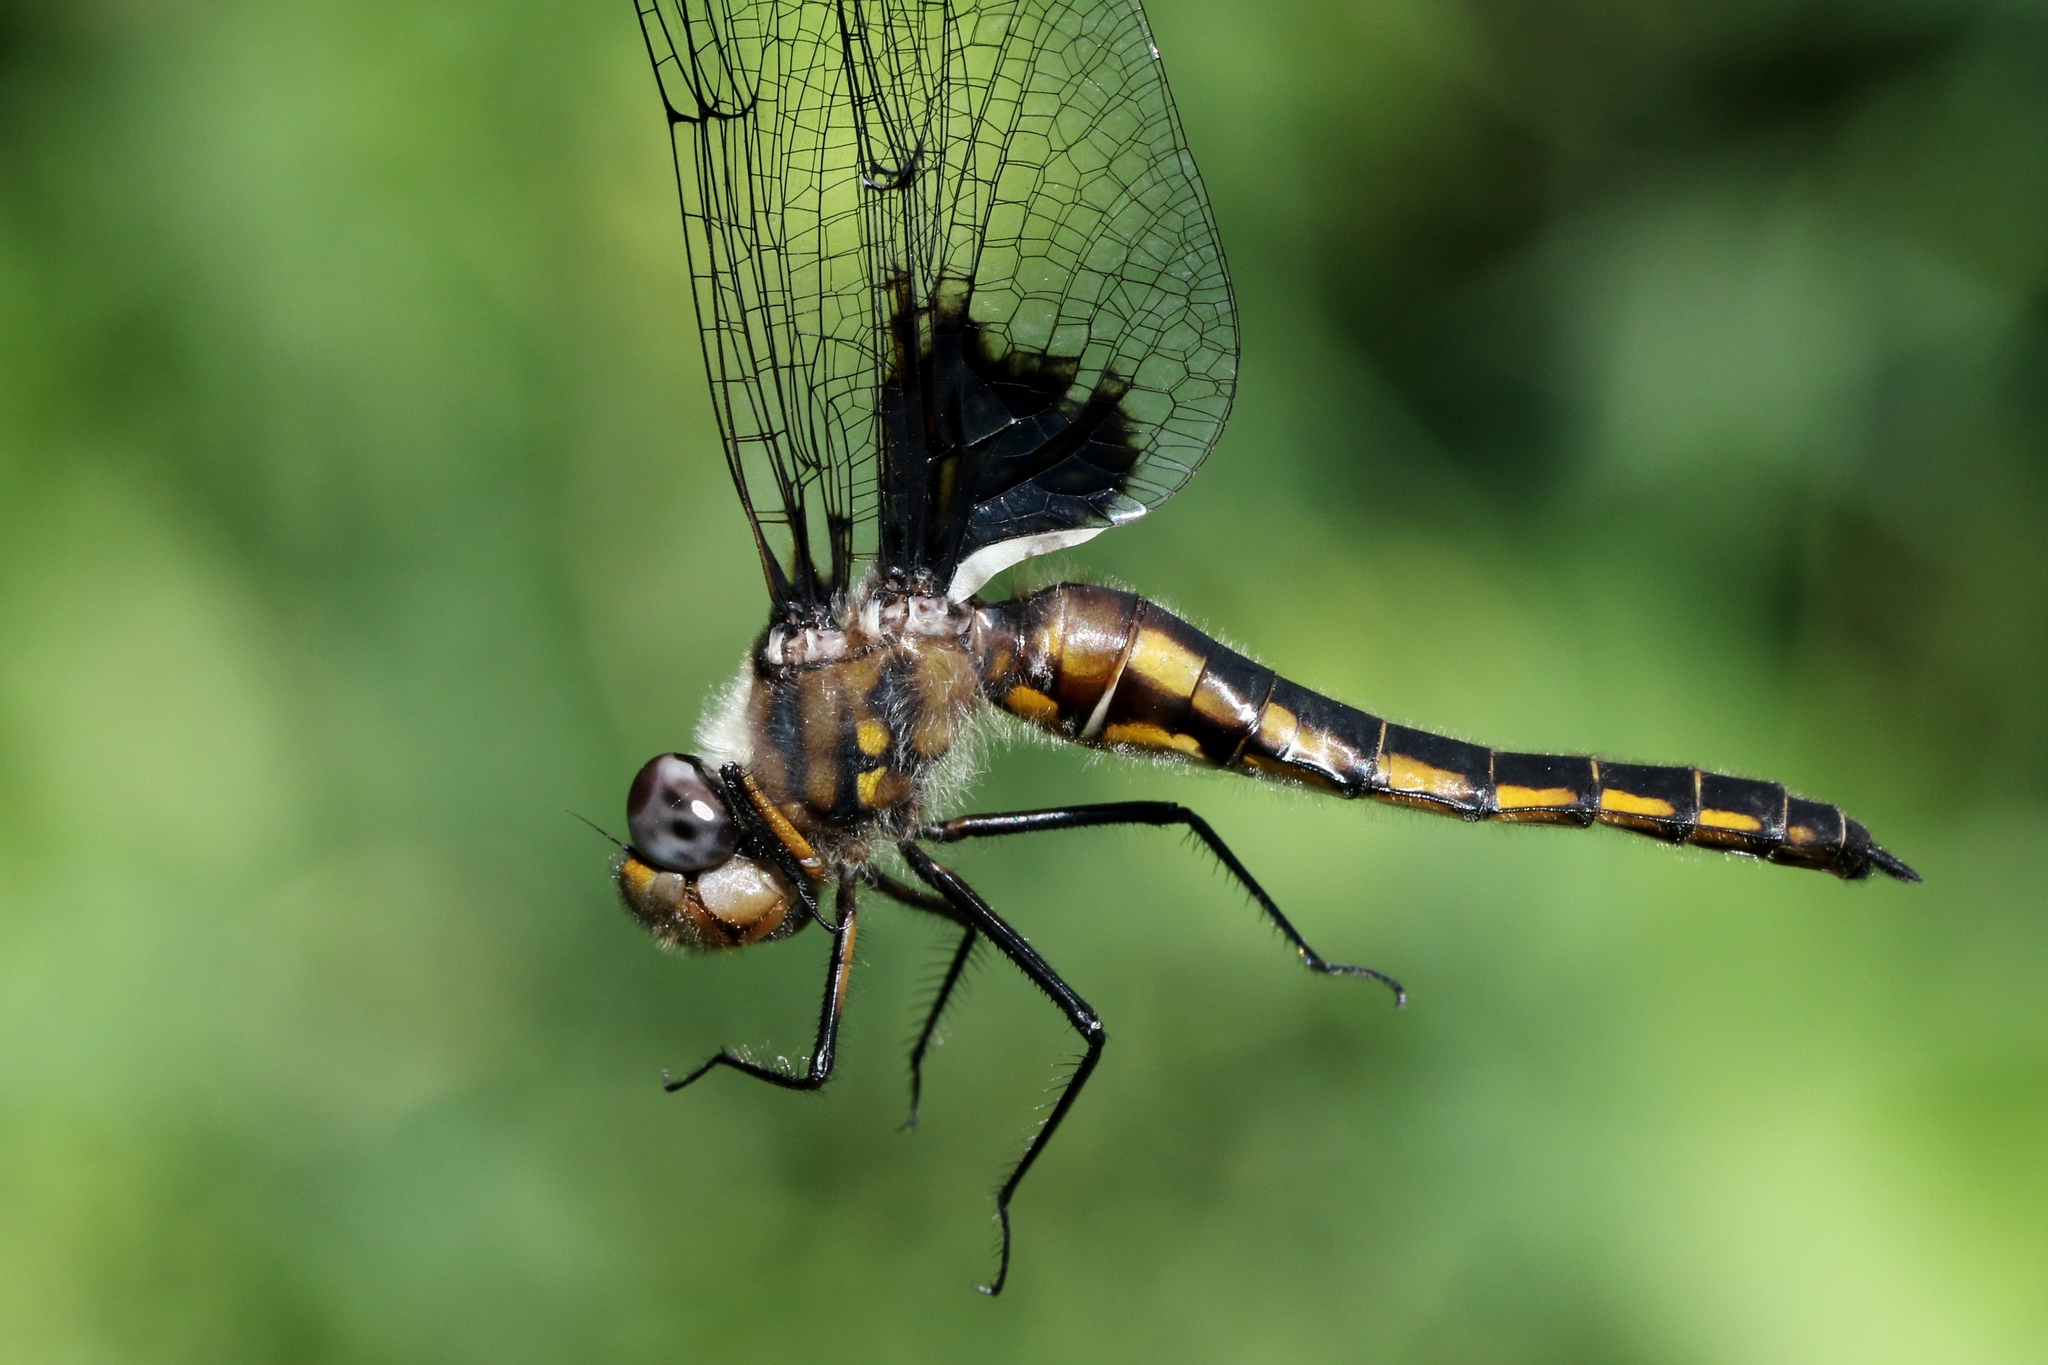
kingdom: Animalia
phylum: Arthropoda
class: Insecta
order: Odonata
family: Corduliidae
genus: Epitheca
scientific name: Epitheca cynosura
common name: Common baskettail
